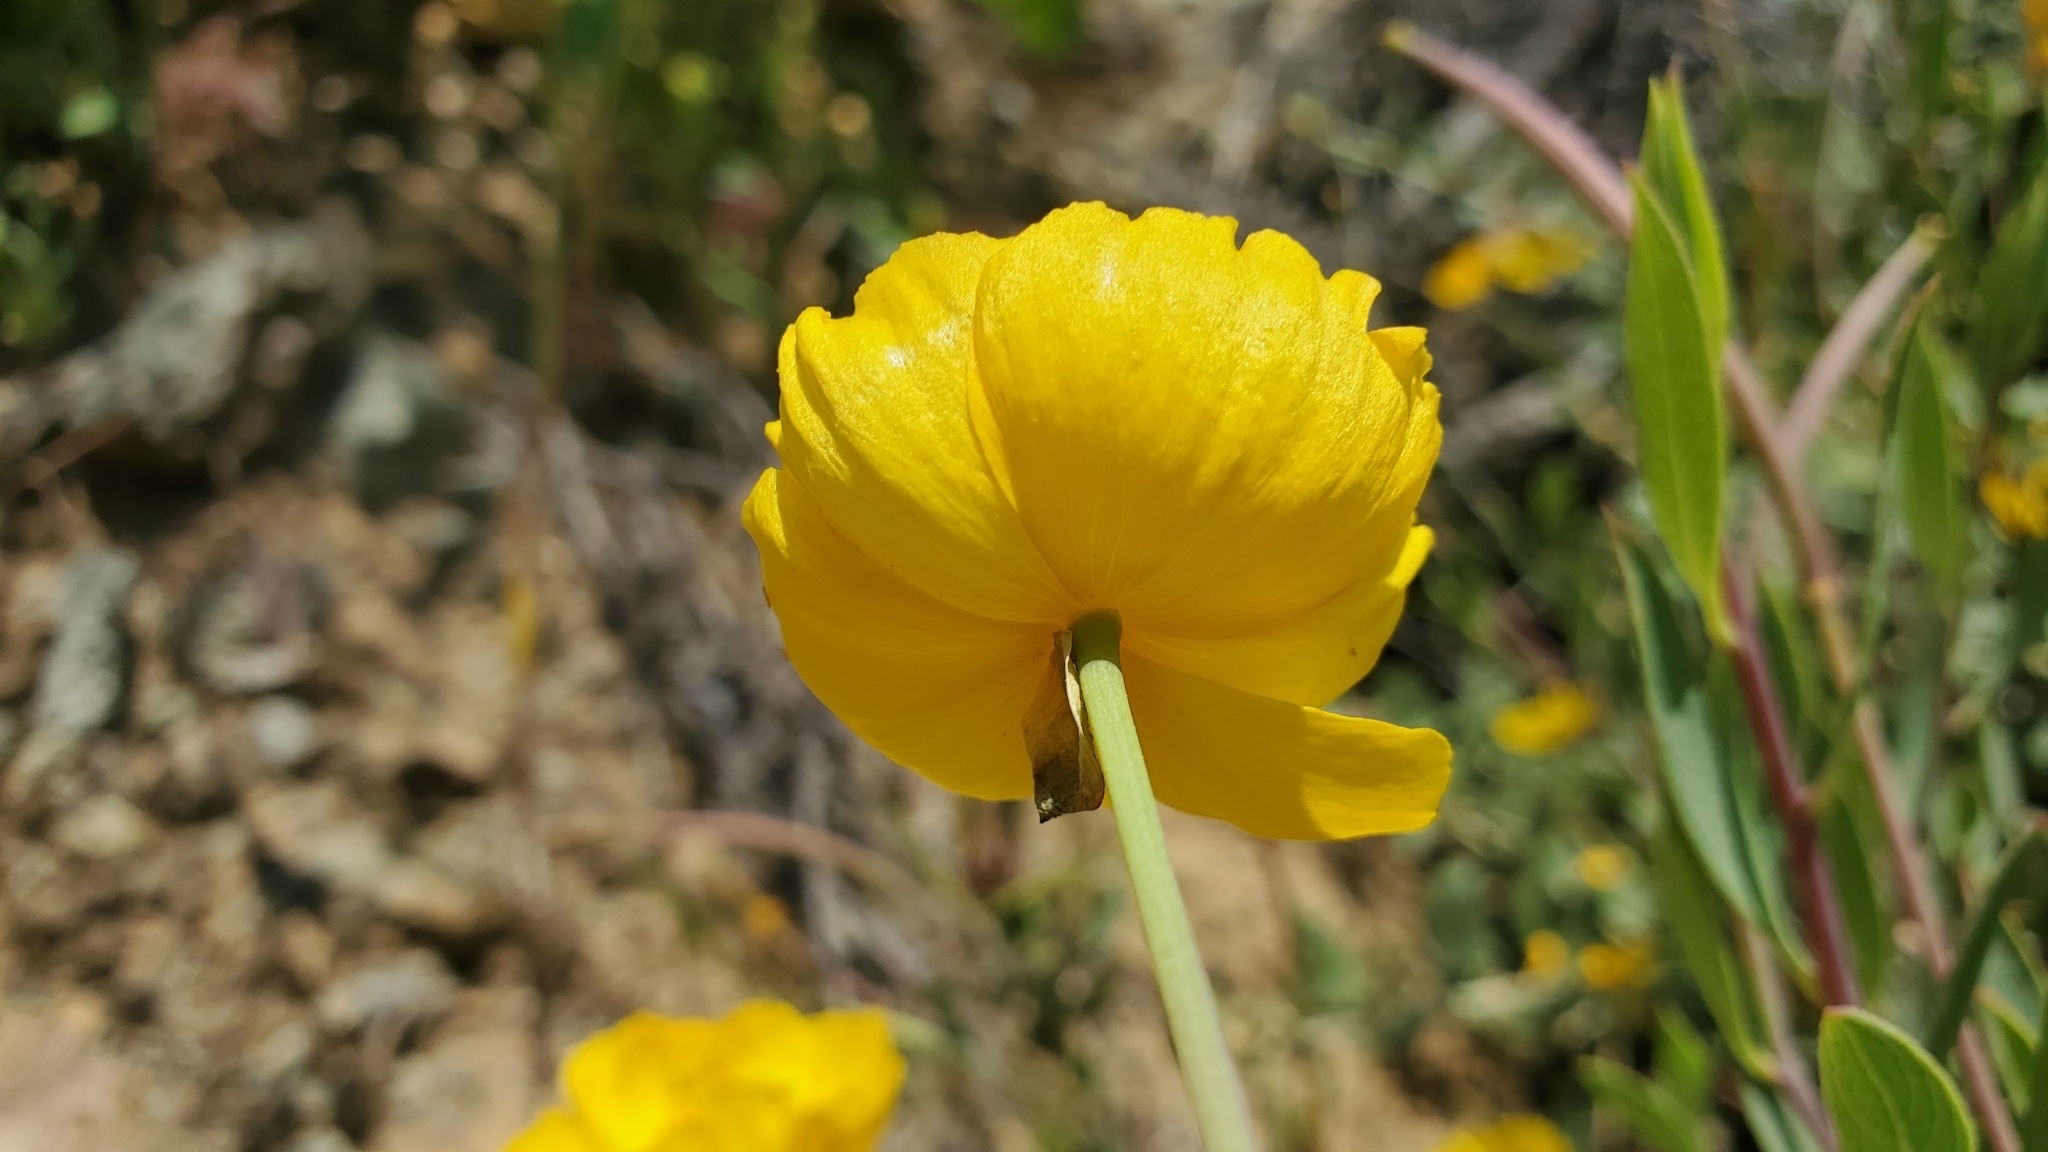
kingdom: Plantae
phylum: Tracheophyta
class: Magnoliopsida
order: Ranunculales
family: Papaveraceae
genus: Dendromecon
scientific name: Dendromecon rigida
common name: Tree poppy
